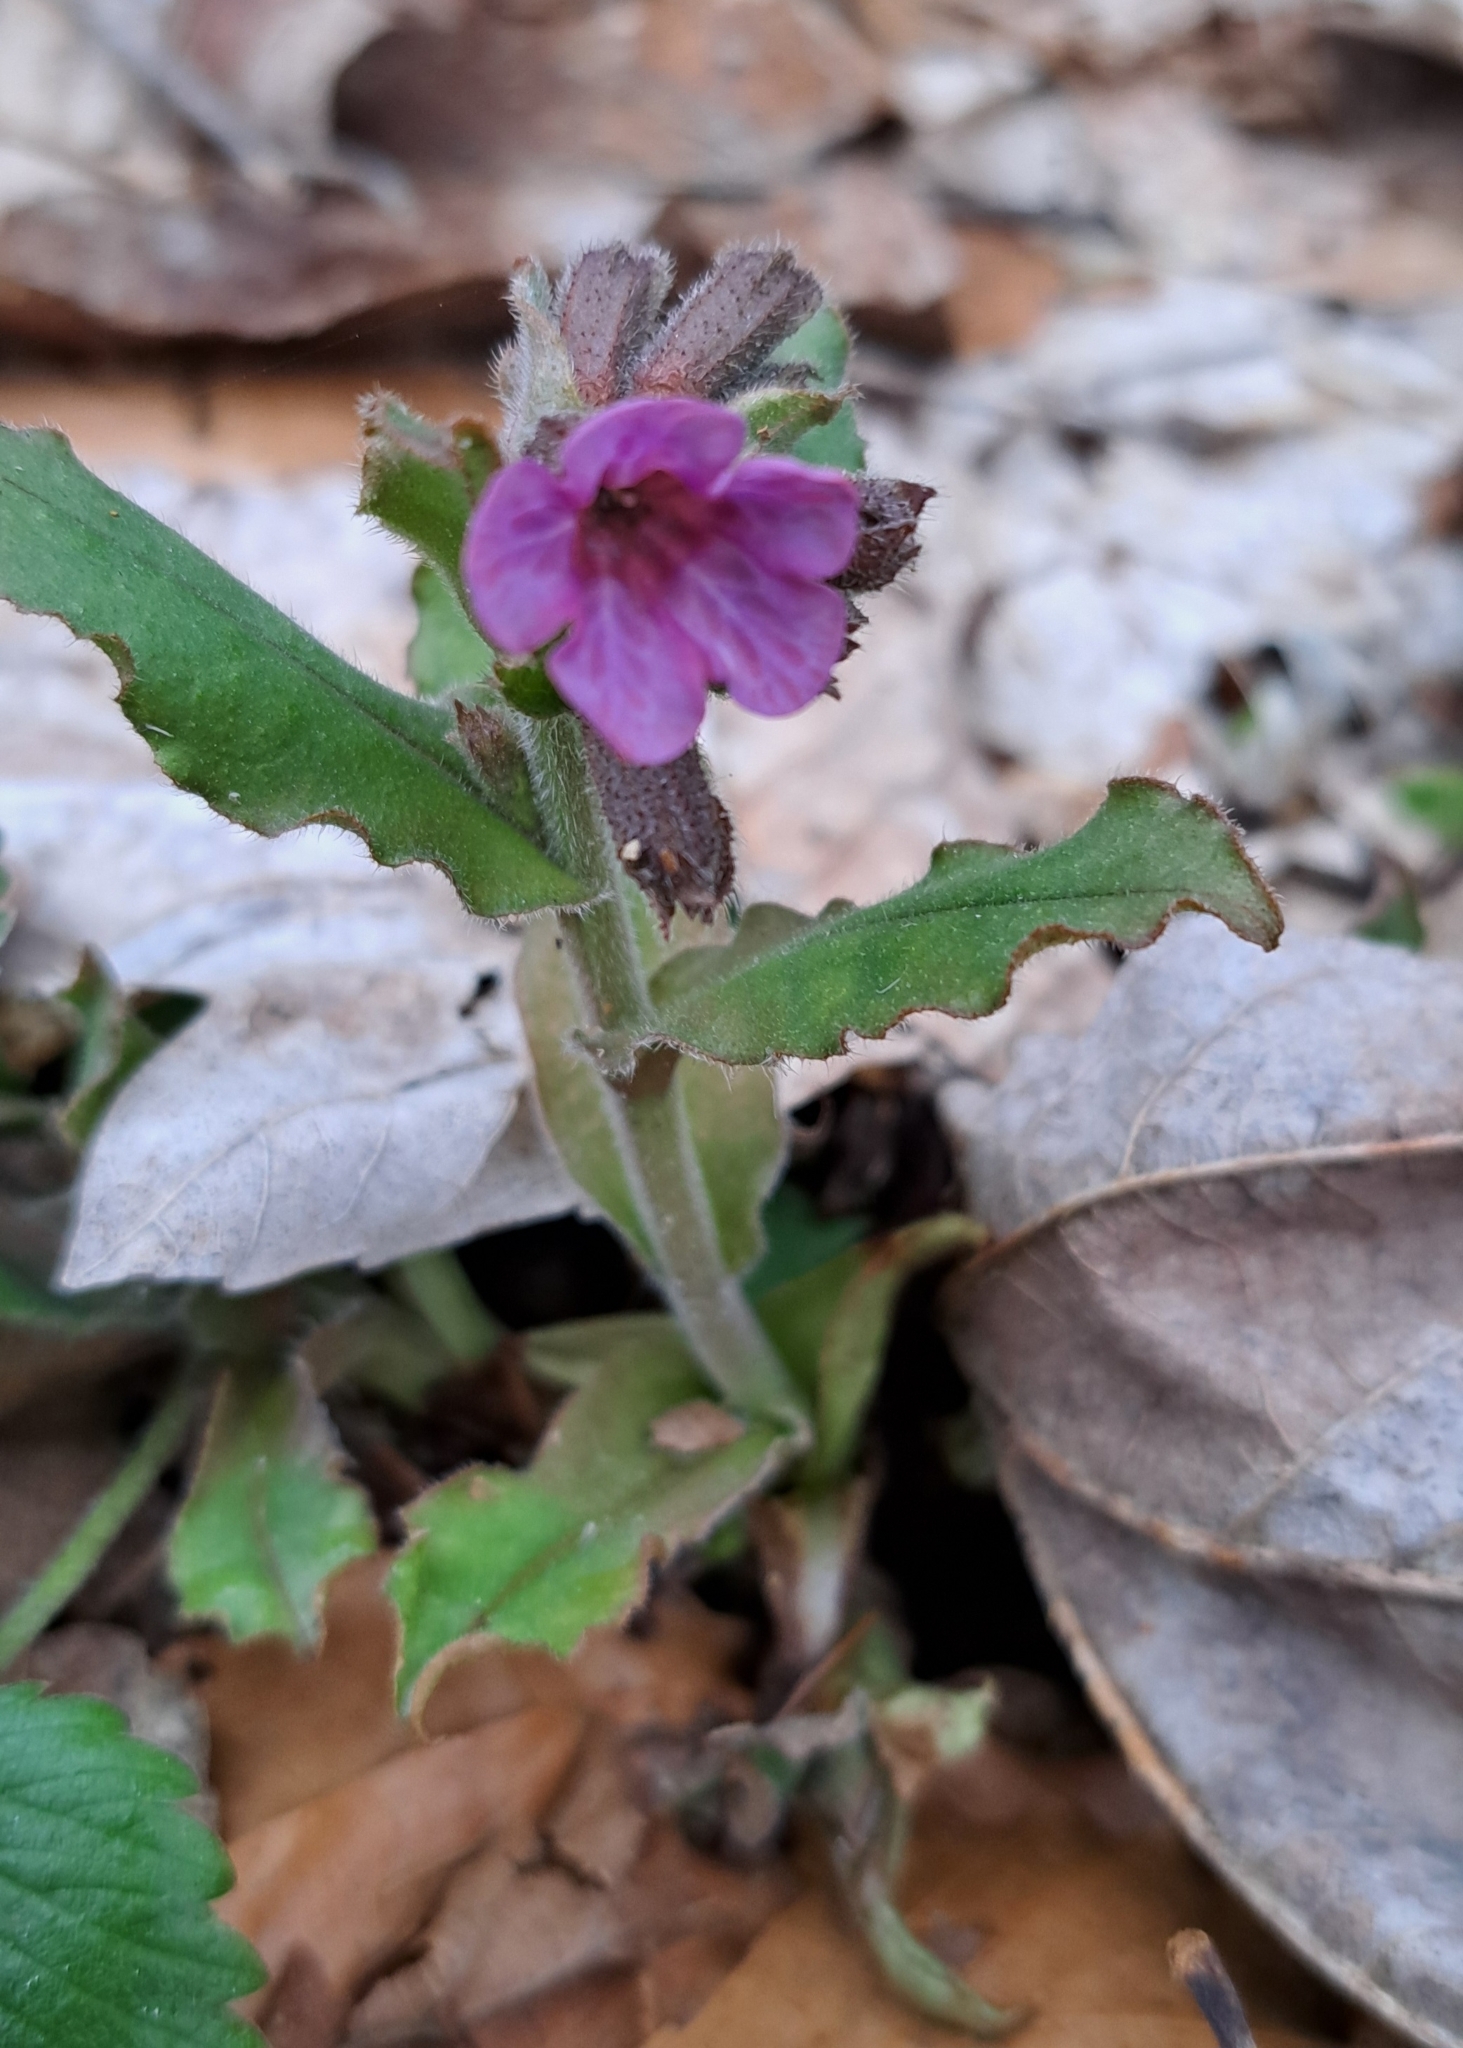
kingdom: Plantae
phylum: Tracheophyta
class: Magnoliopsida
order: Boraginales
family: Boraginaceae
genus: Pulmonaria
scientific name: Pulmonaria obscura
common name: Suffolk lungwort
